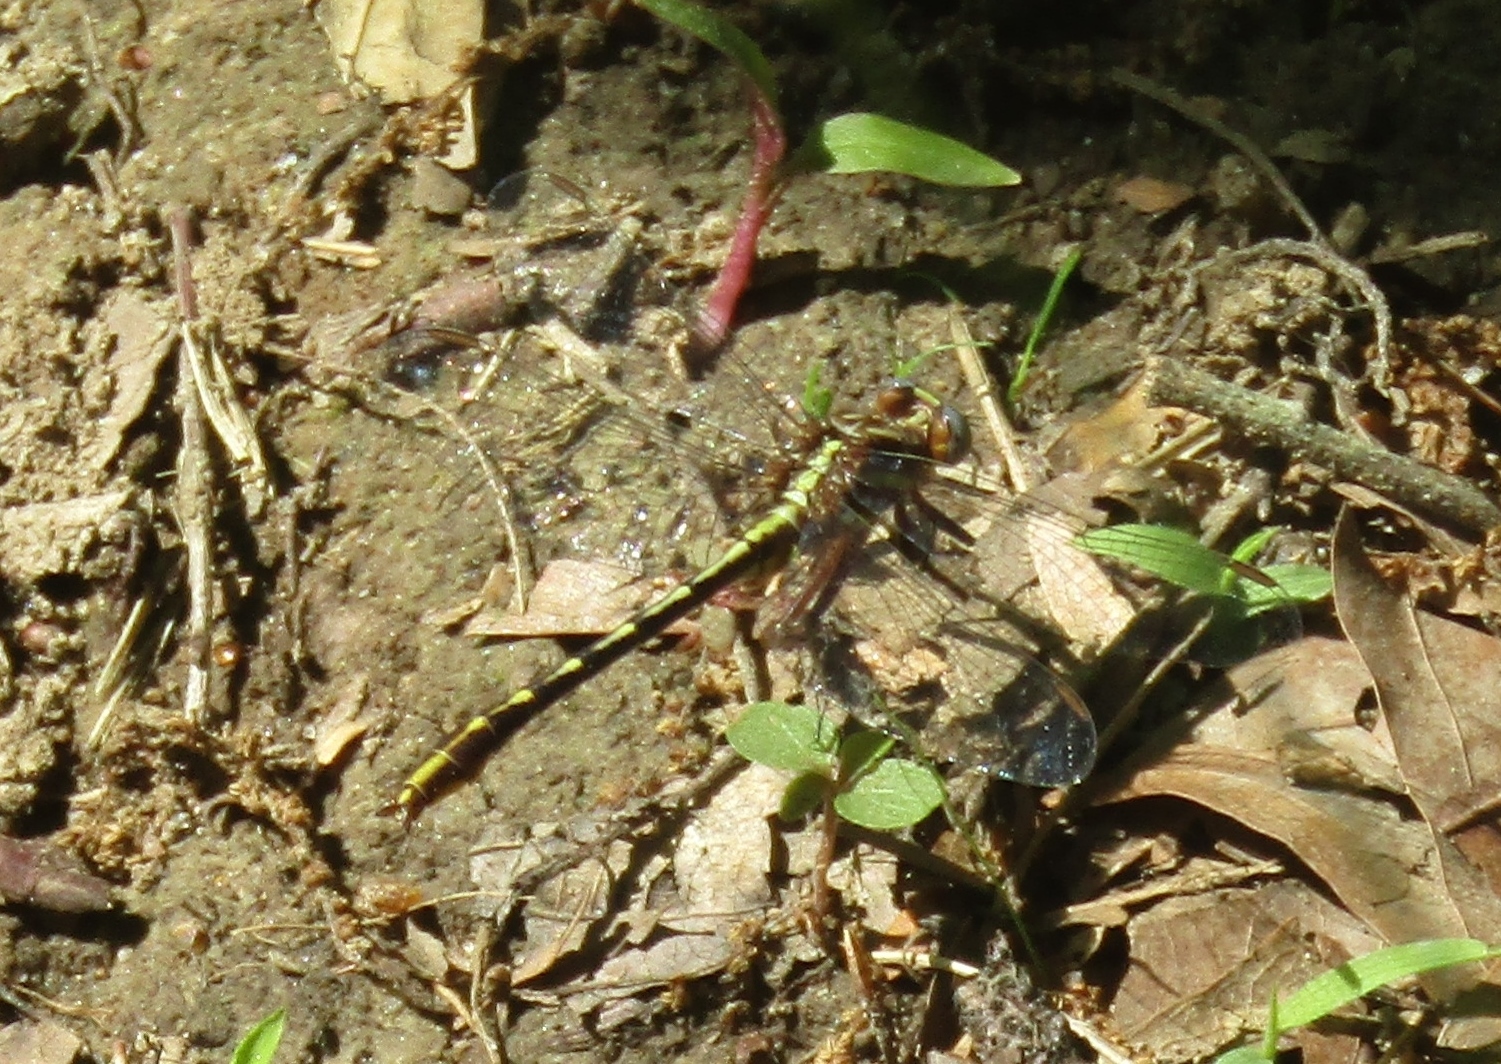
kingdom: Animalia
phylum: Arthropoda
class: Insecta
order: Odonata
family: Gomphidae
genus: Phanogomphus
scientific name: Phanogomphus exilis
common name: Lancet clubtail
